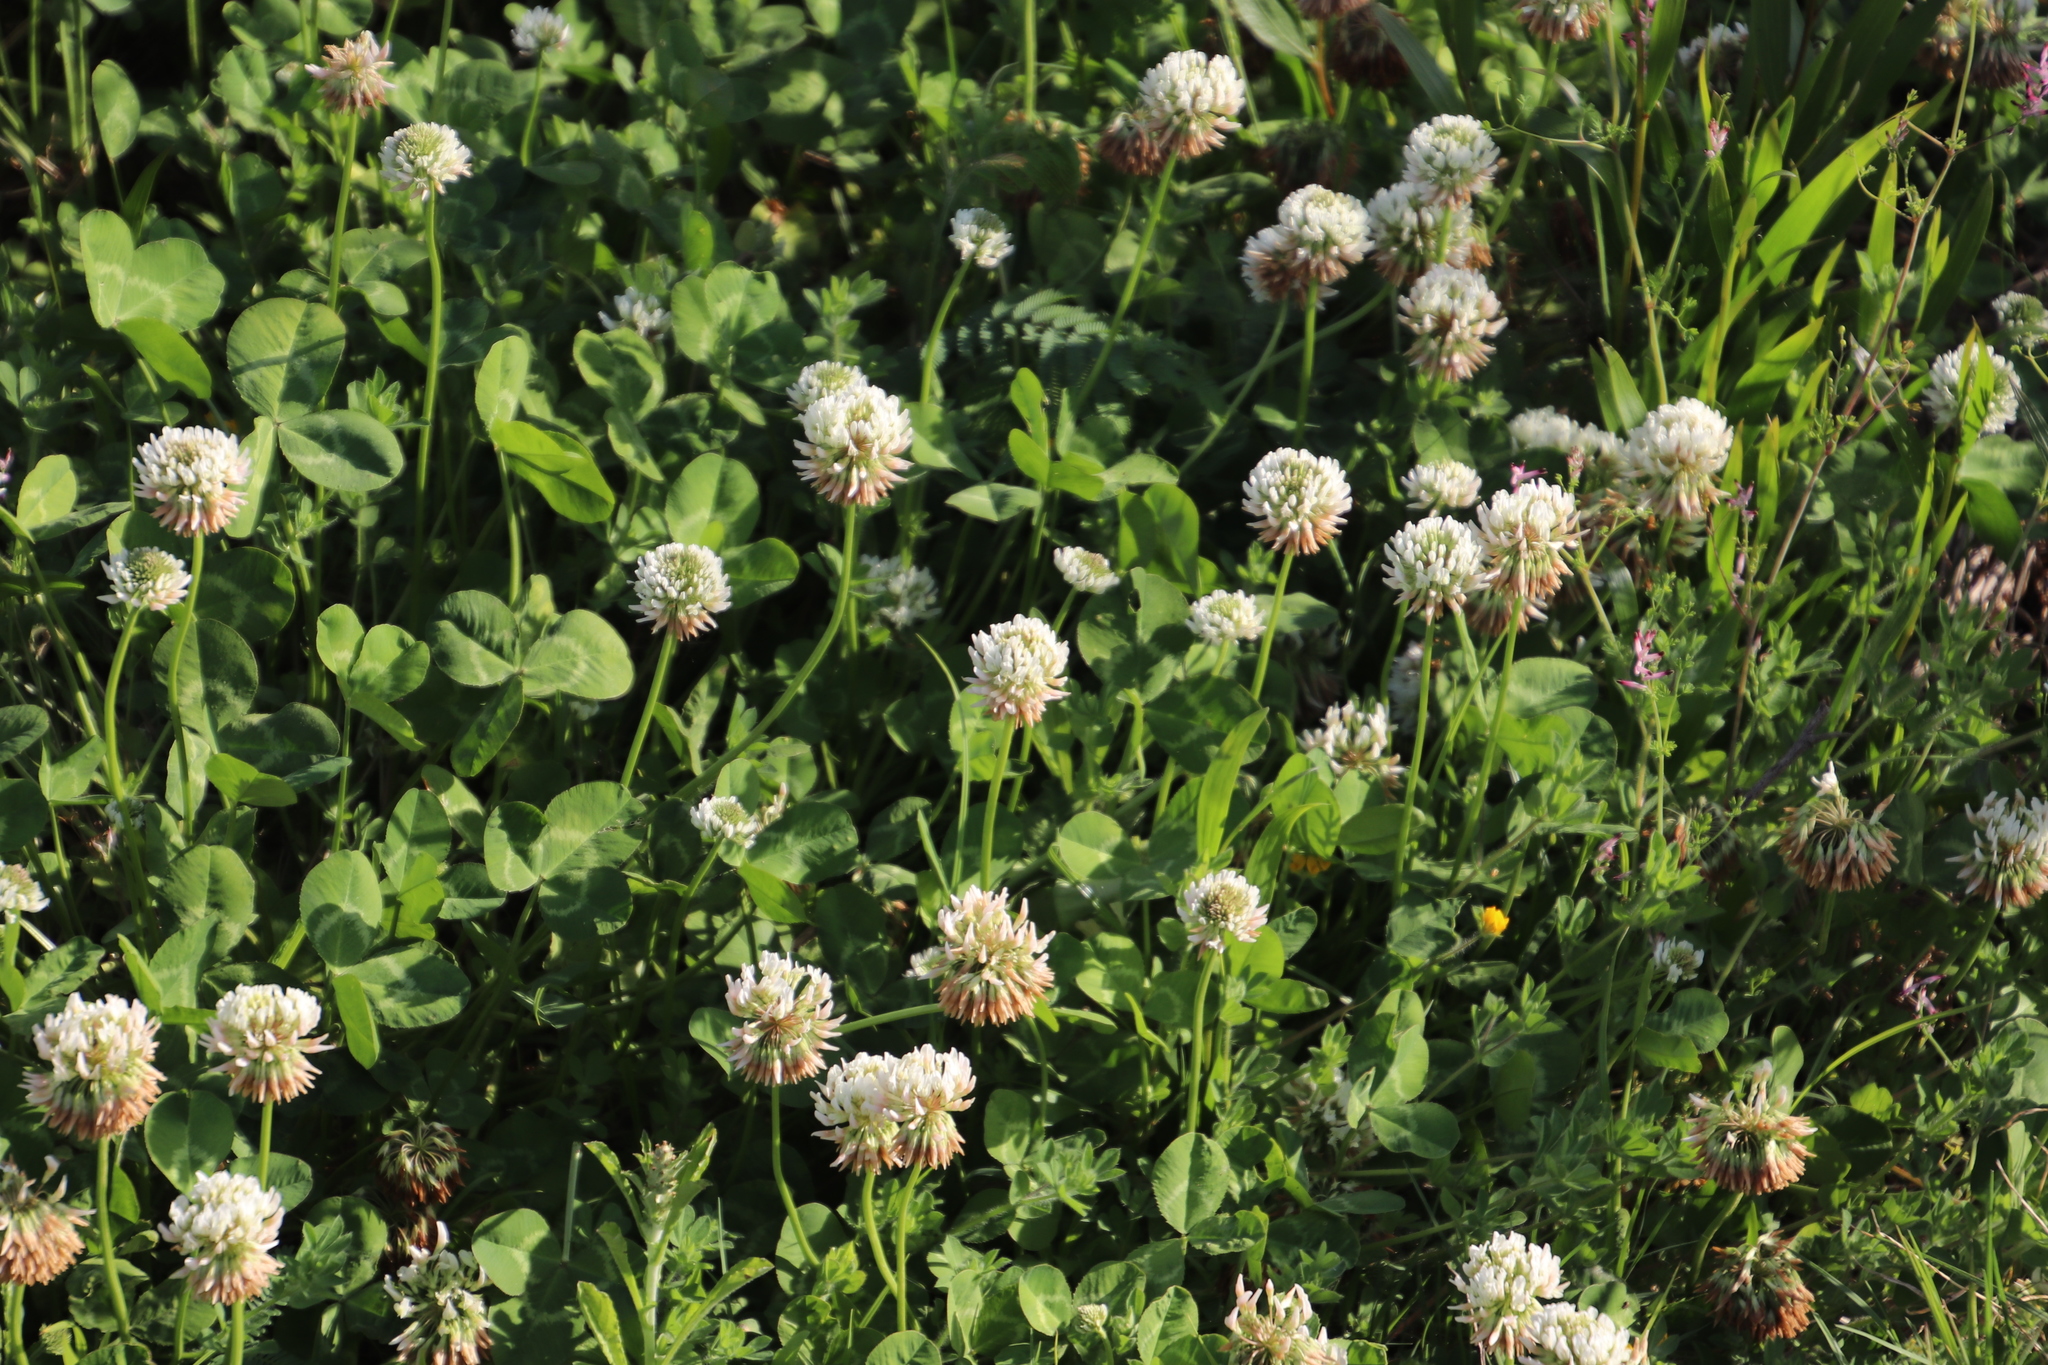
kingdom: Plantae
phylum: Tracheophyta
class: Magnoliopsida
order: Fabales
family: Fabaceae
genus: Trifolium
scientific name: Trifolium repens
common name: White clover
